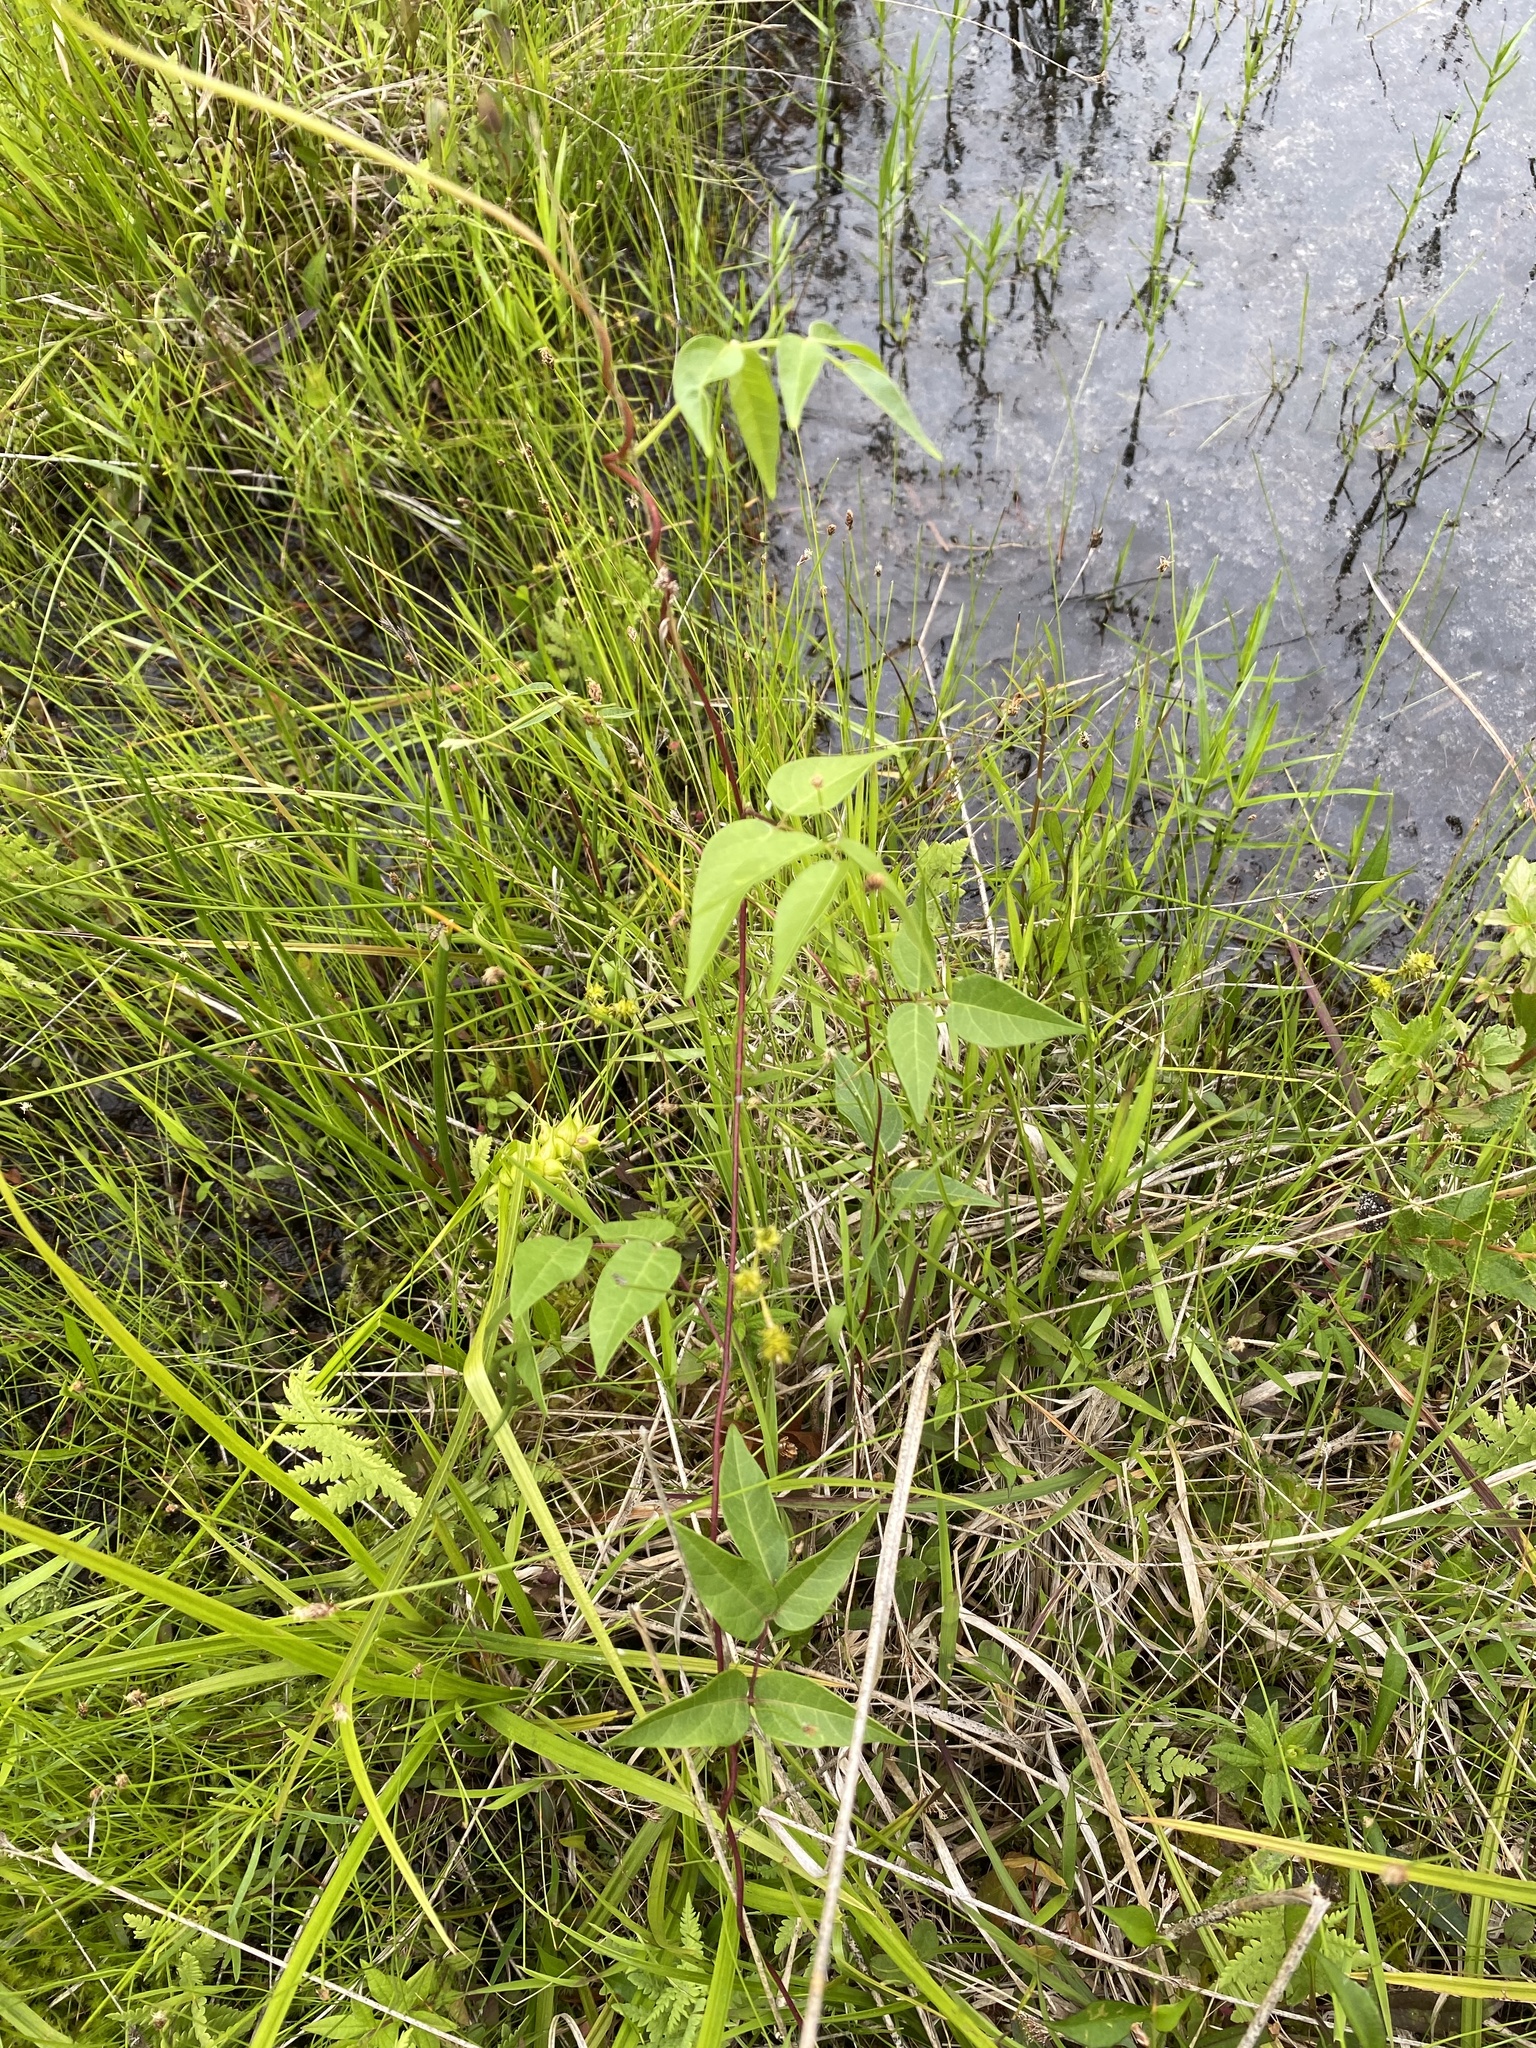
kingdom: Plantae
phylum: Tracheophyta
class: Magnoliopsida
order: Fabales
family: Fabaceae
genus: Apios
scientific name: Apios americana
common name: American potato-bean
